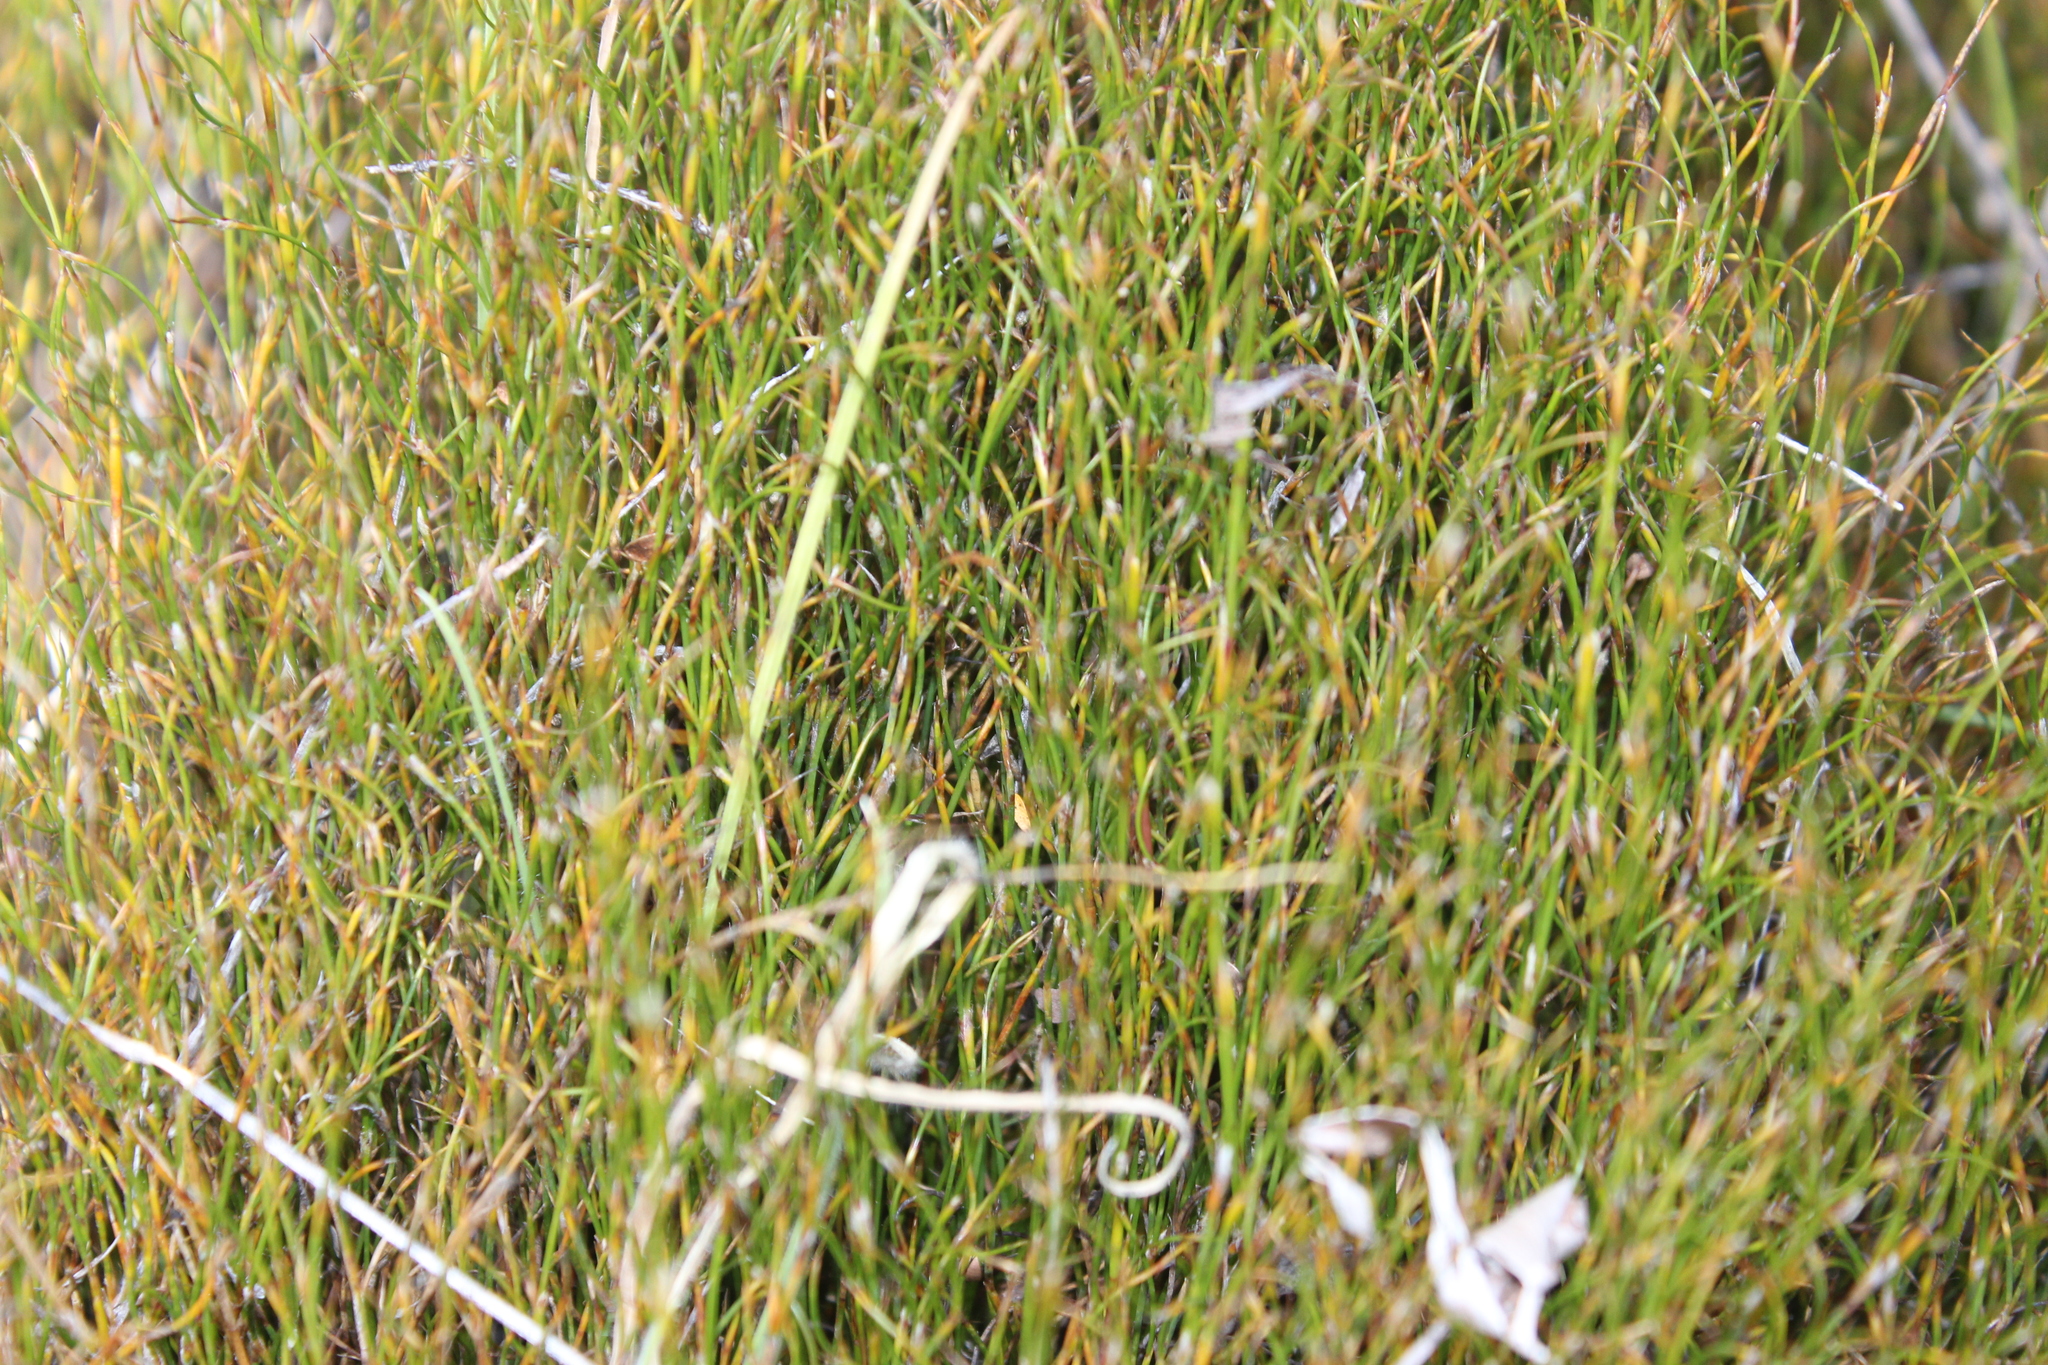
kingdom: Plantae
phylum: Tracheophyta
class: Liliopsida
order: Poales
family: Restionaceae
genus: Empodisma
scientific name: Empodisma minus
